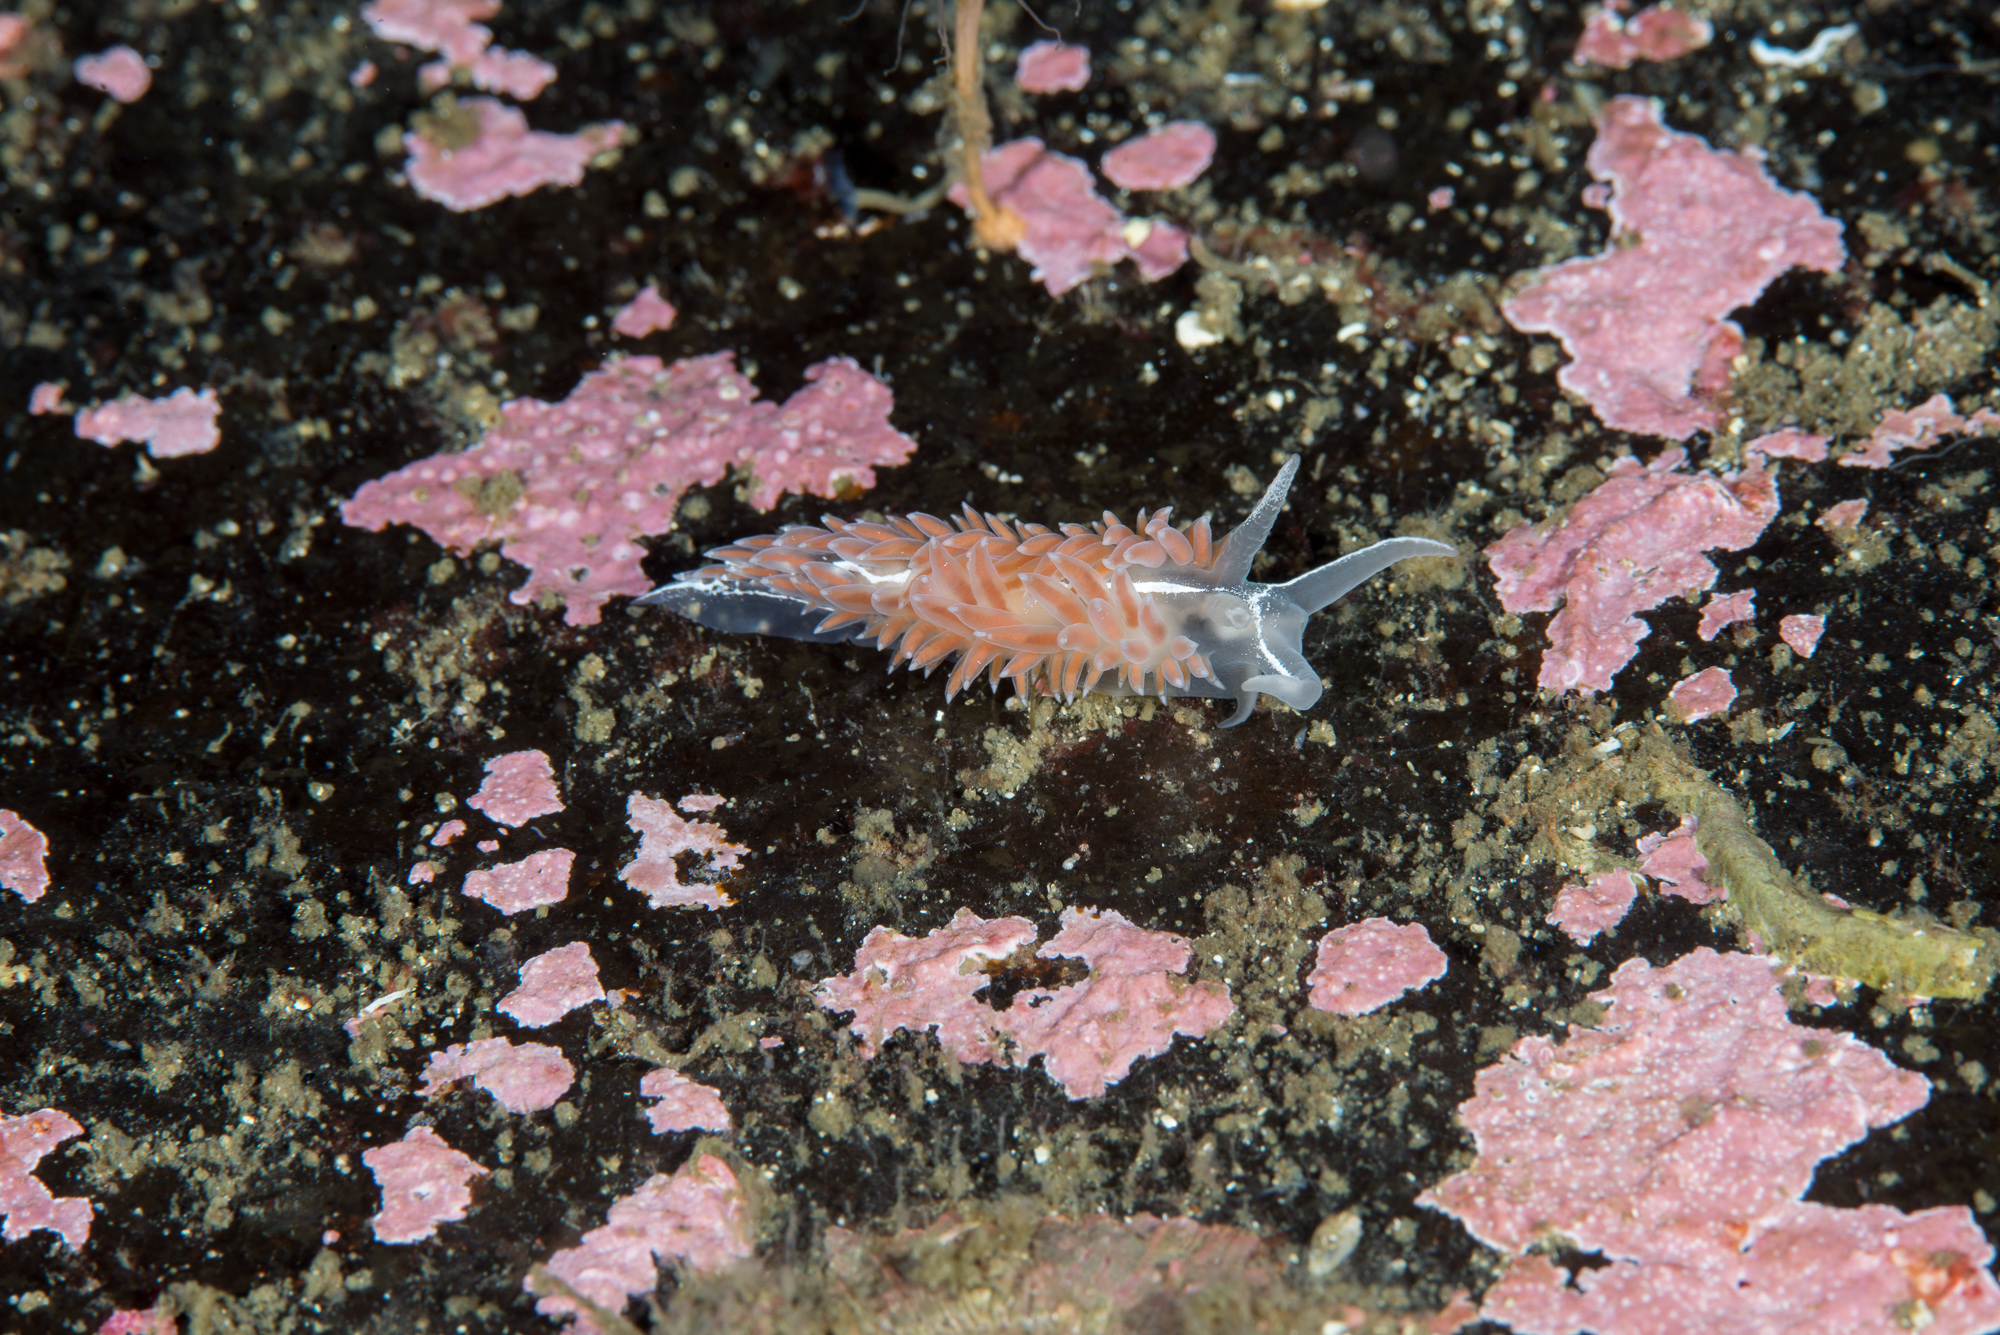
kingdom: Animalia
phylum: Mollusca
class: Gastropoda
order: Nudibranchia
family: Coryphellidae
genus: Coryphella
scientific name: Coryphella monicae
